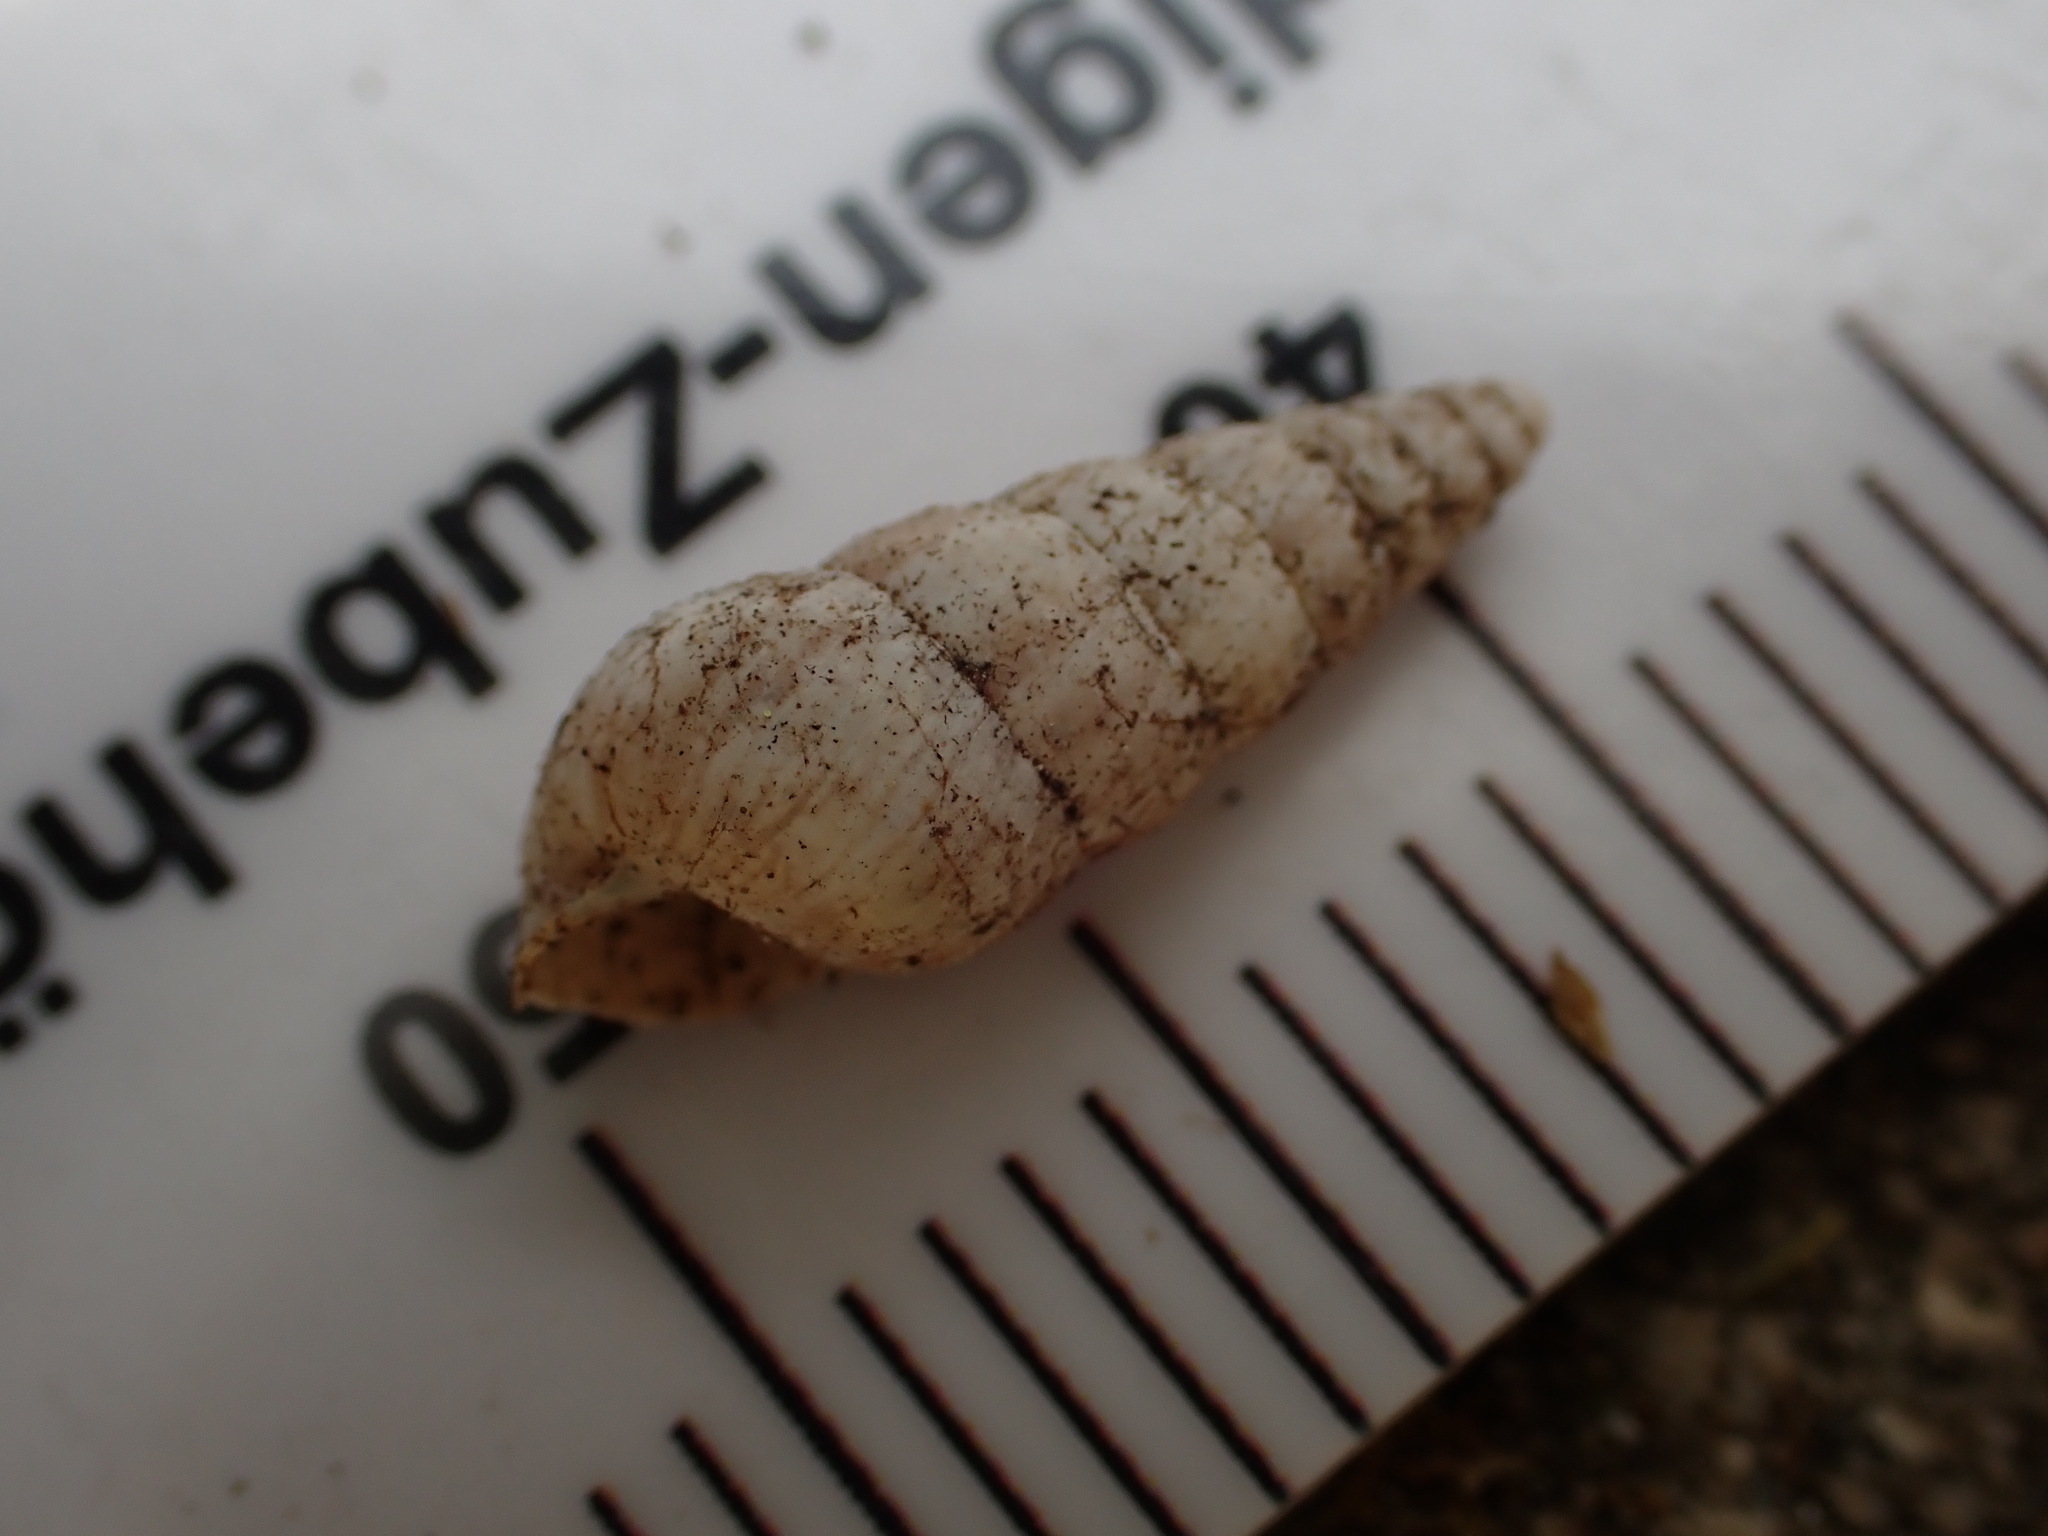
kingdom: Animalia
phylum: Mollusca
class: Gastropoda
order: Stylommatophora
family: Geomitridae
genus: Cochlicella
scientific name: Cochlicella acuta
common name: Pointed snail
